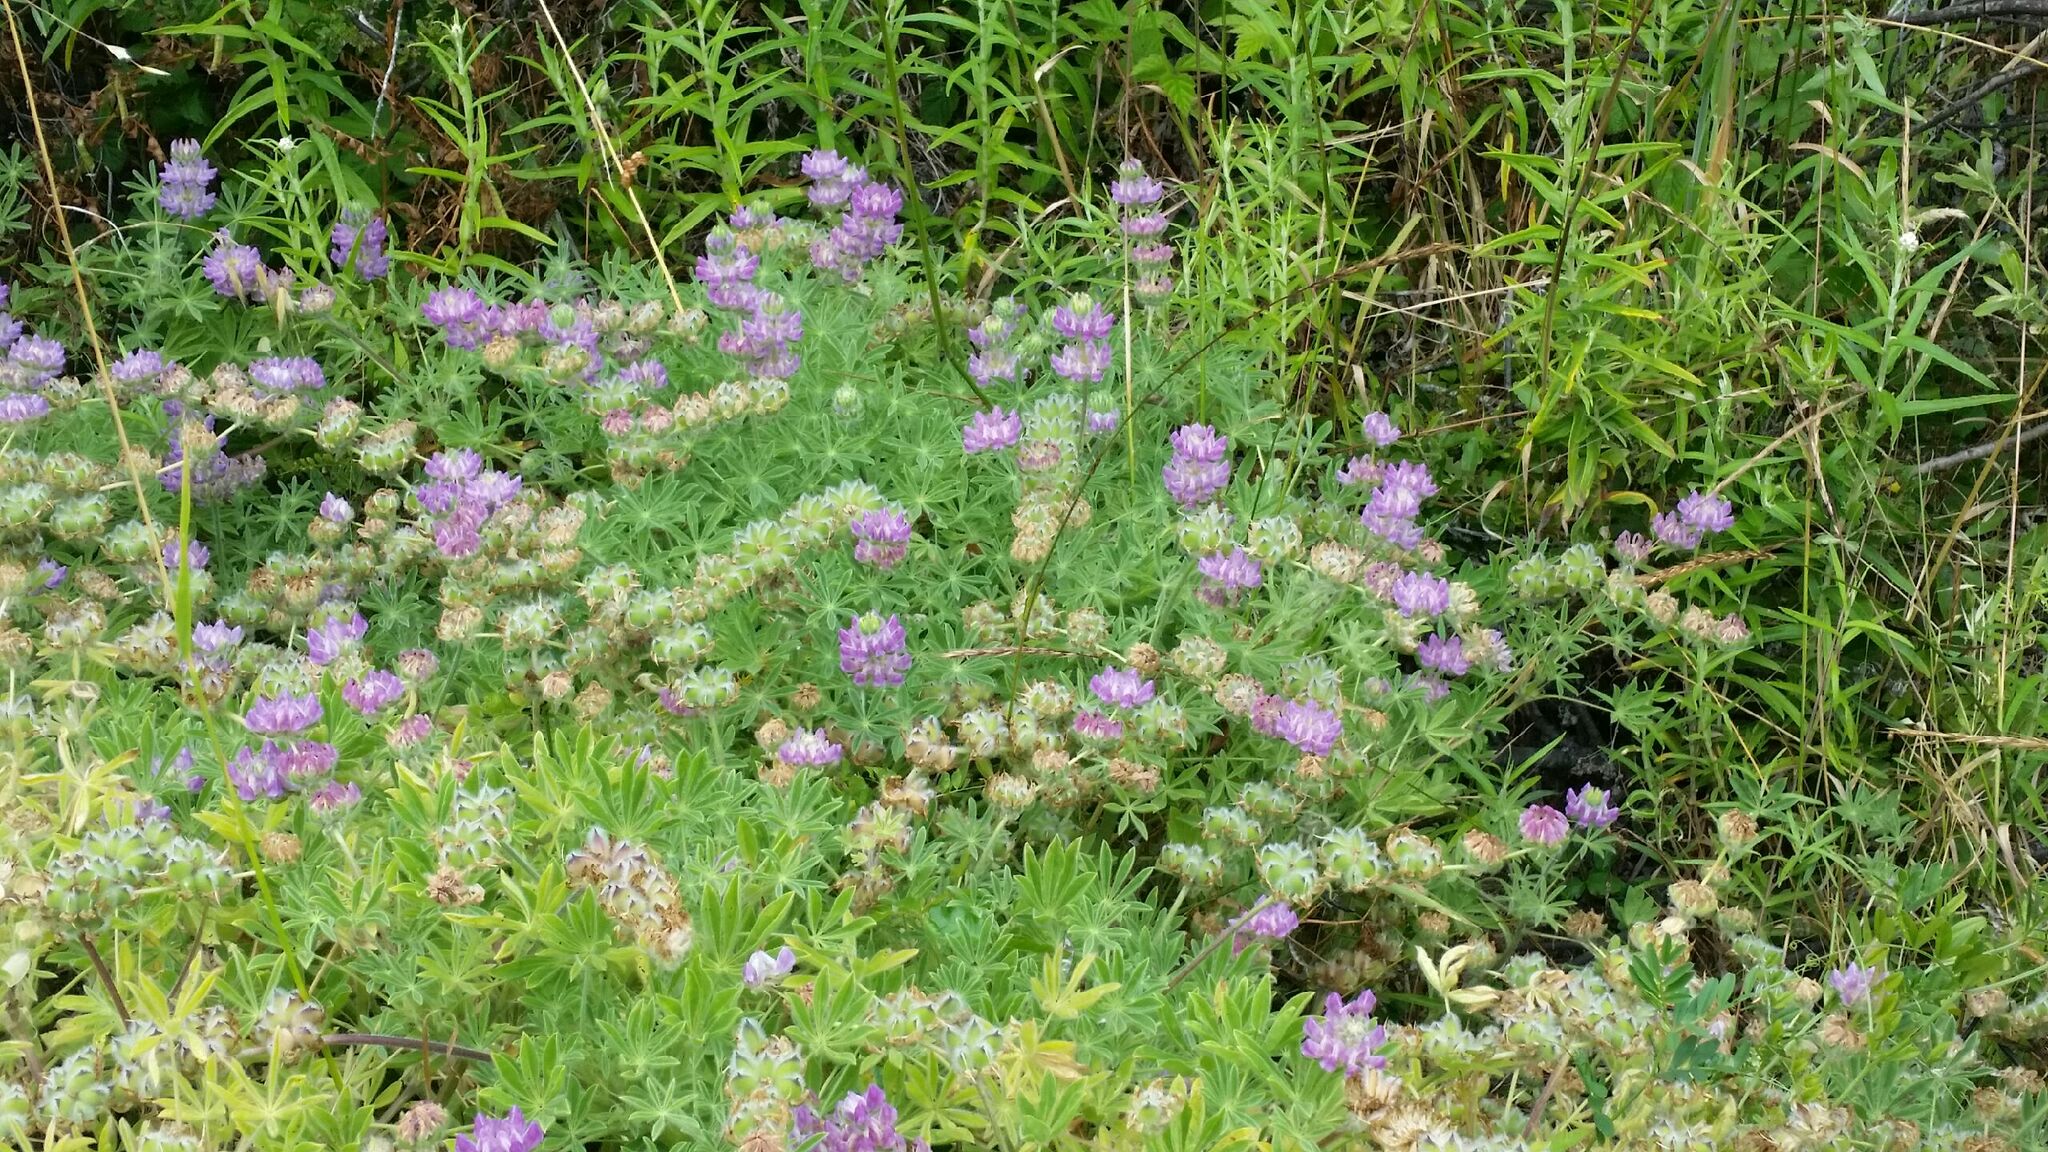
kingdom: Plantae
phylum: Tracheophyta
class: Magnoliopsida
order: Fabales
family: Fabaceae
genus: Lupinus
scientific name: Lupinus microcarpus
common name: Chick lupine
